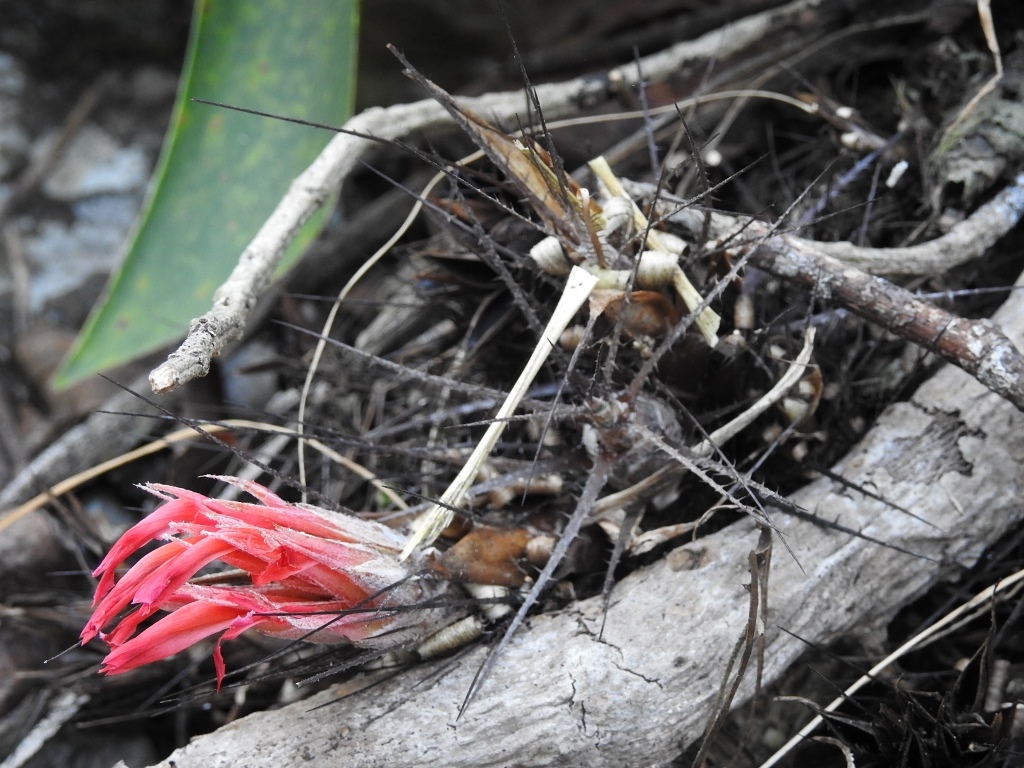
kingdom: Plantae
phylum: Tracheophyta
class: Liliopsida
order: Poales
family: Bromeliaceae
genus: Pitcairnia
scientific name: Pitcairnia heterophylla
